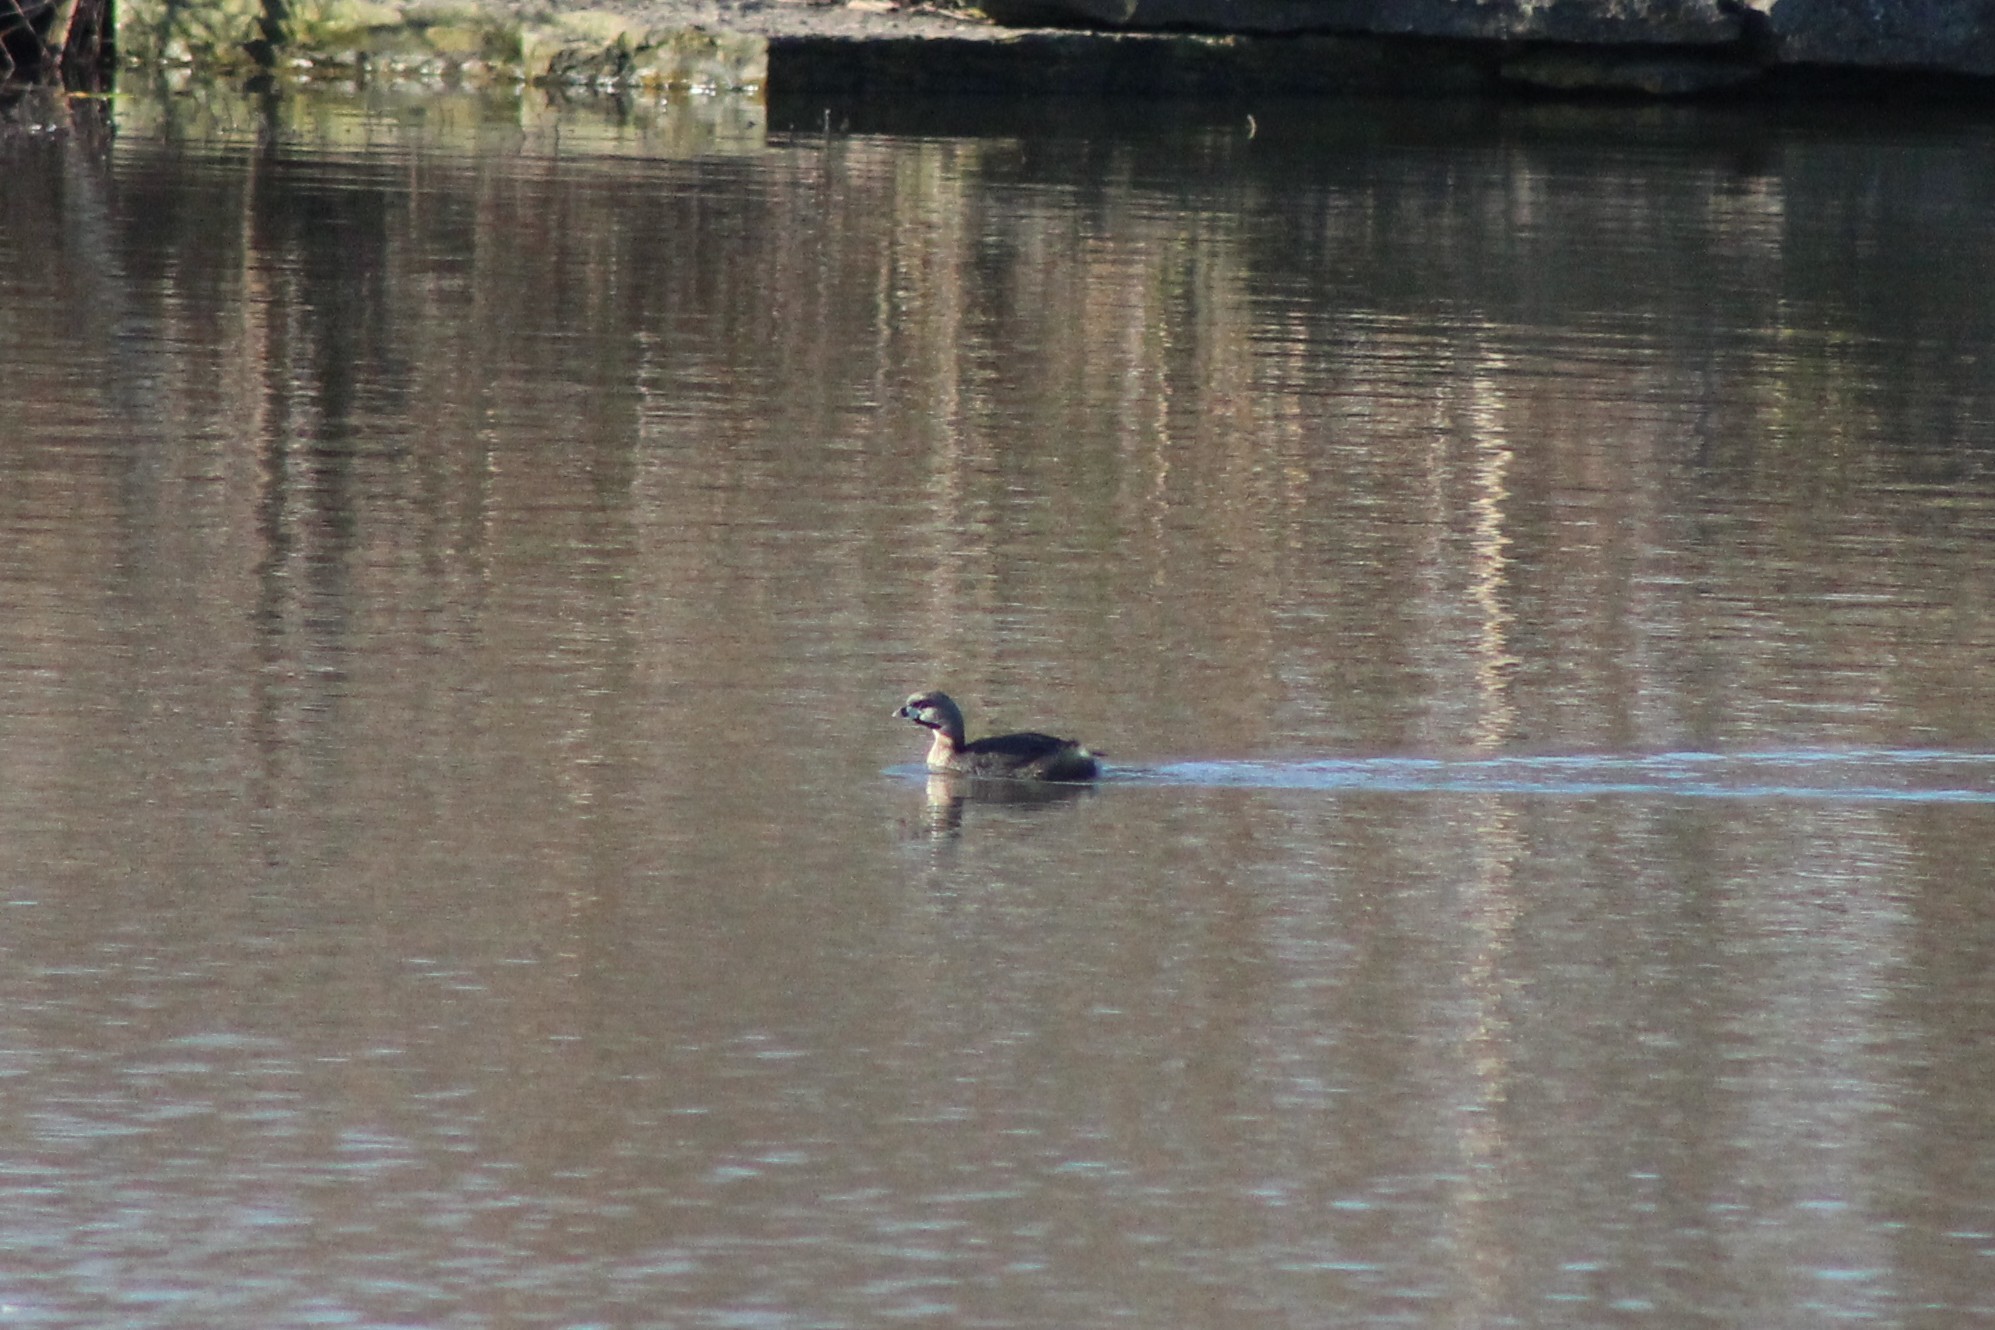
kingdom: Animalia
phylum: Chordata
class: Aves
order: Podicipediformes
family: Podicipedidae
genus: Podilymbus
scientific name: Podilymbus podiceps
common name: Pied-billed grebe
